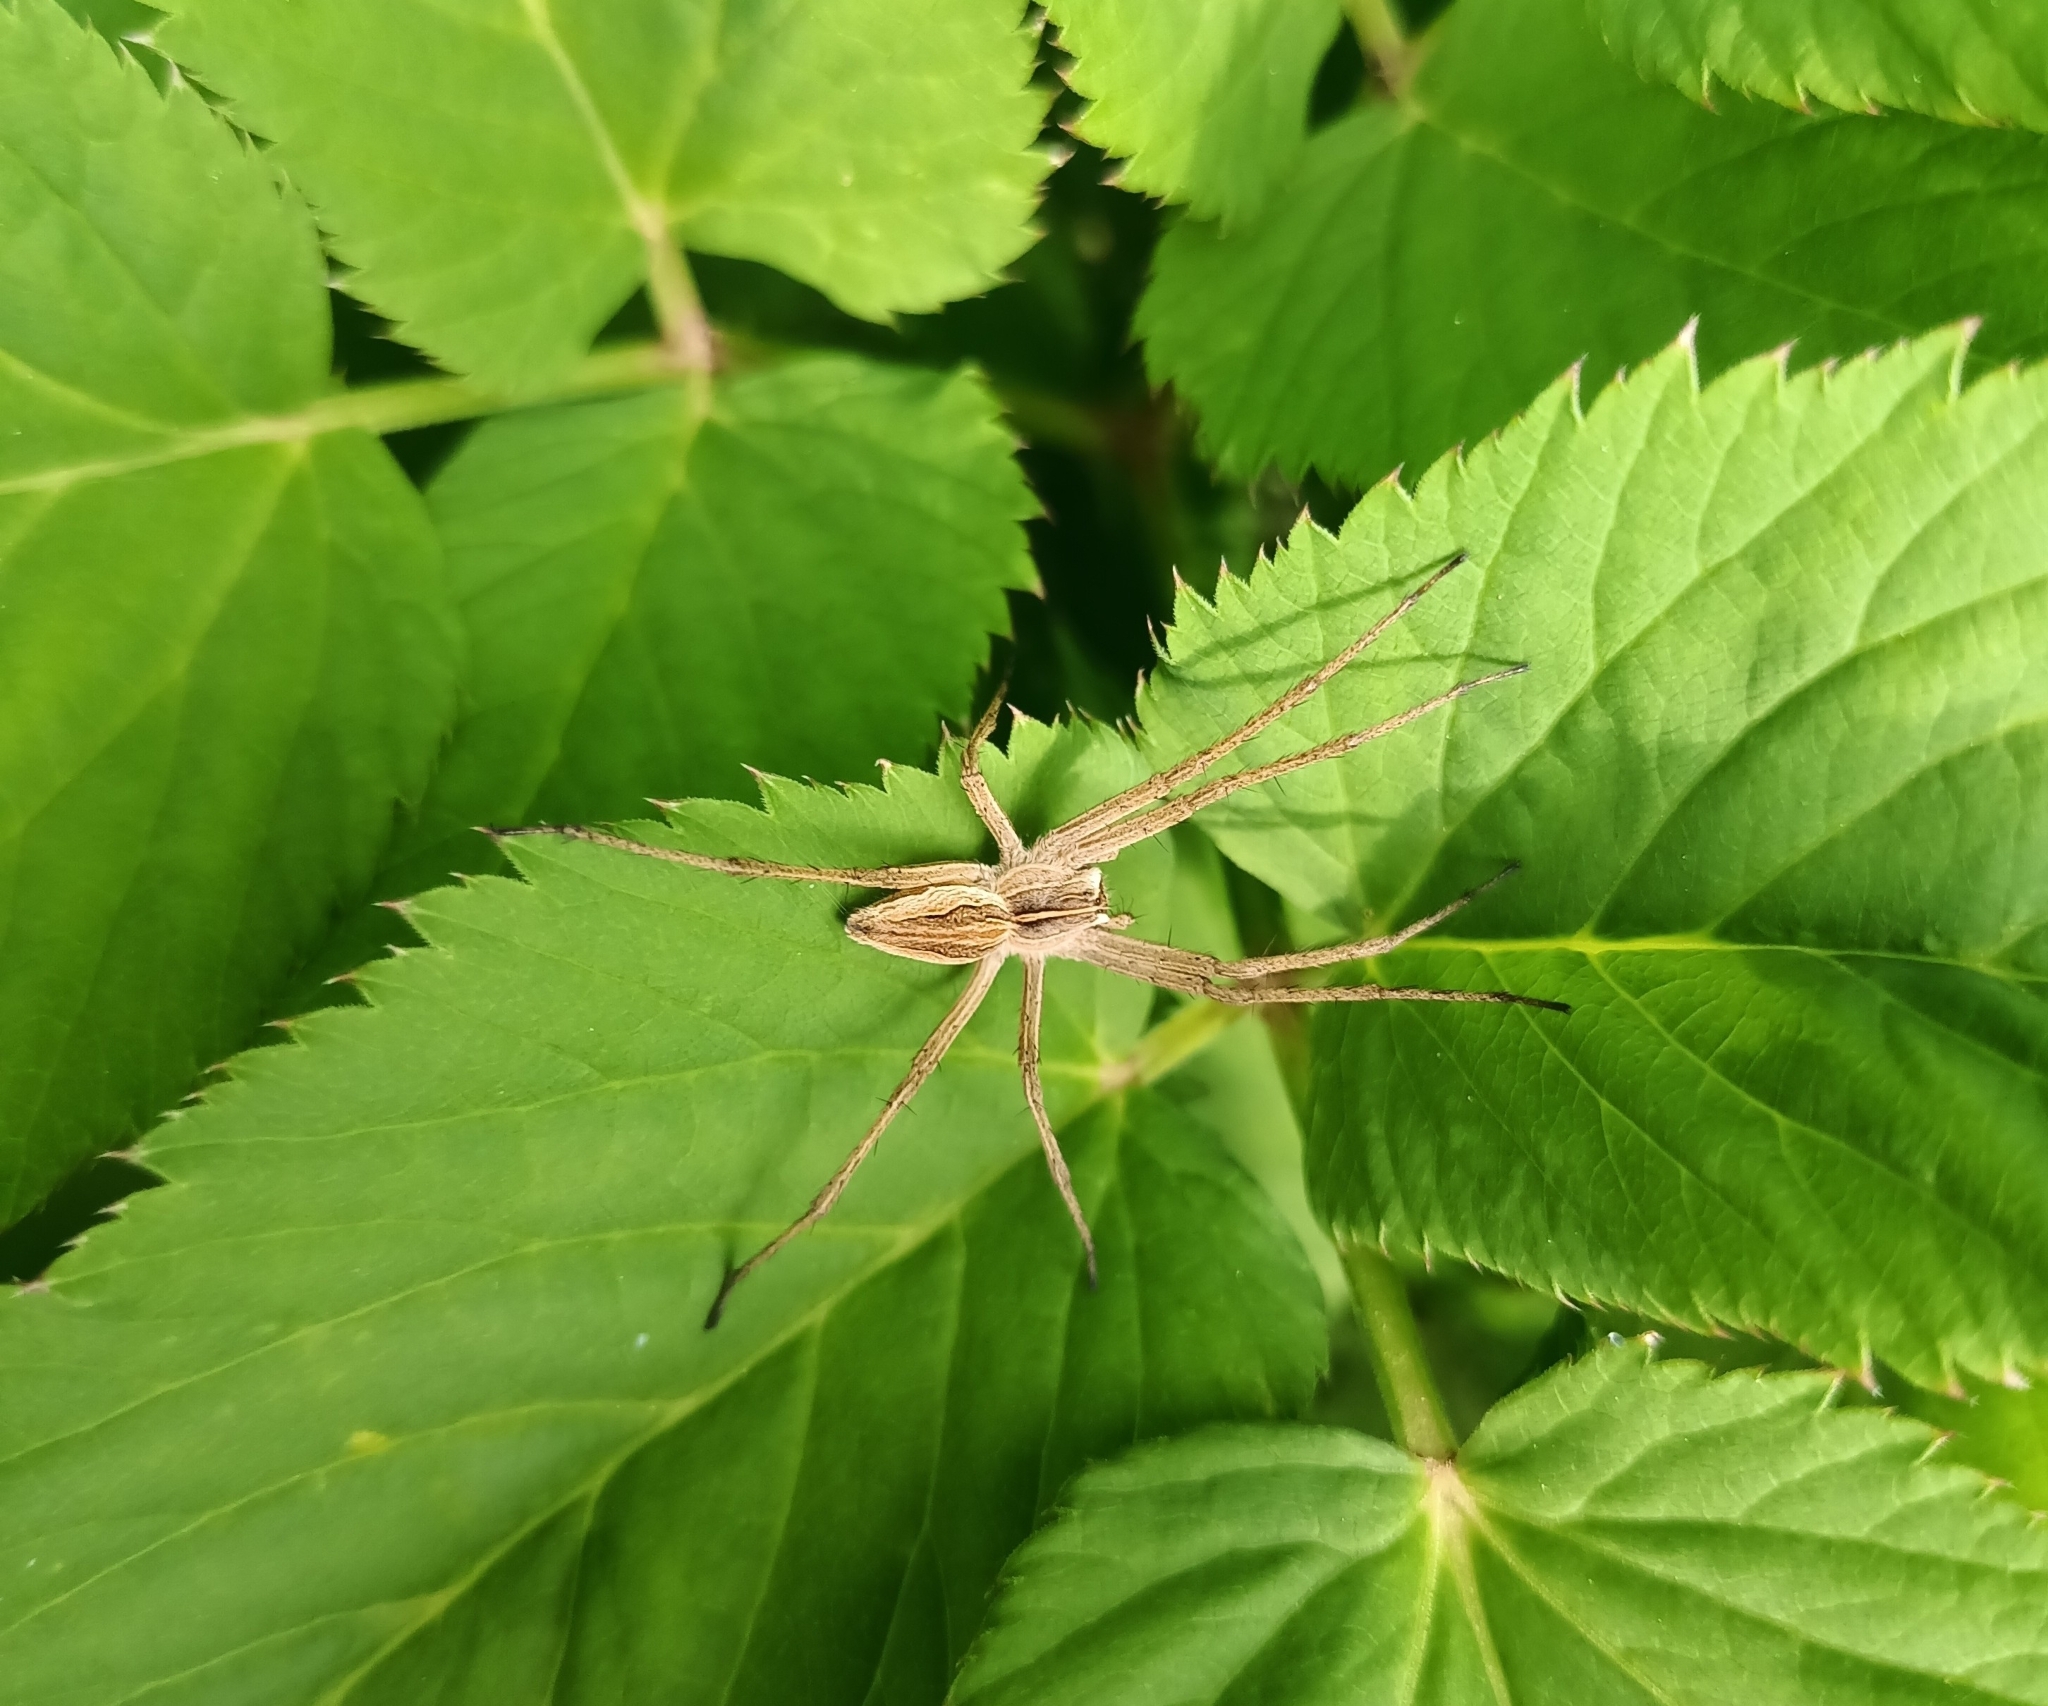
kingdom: Animalia
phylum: Arthropoda
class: Arachnida
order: Araneae
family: Pisauridae
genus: Pisaura
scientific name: Pisaura mirabilis
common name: Tent spider
